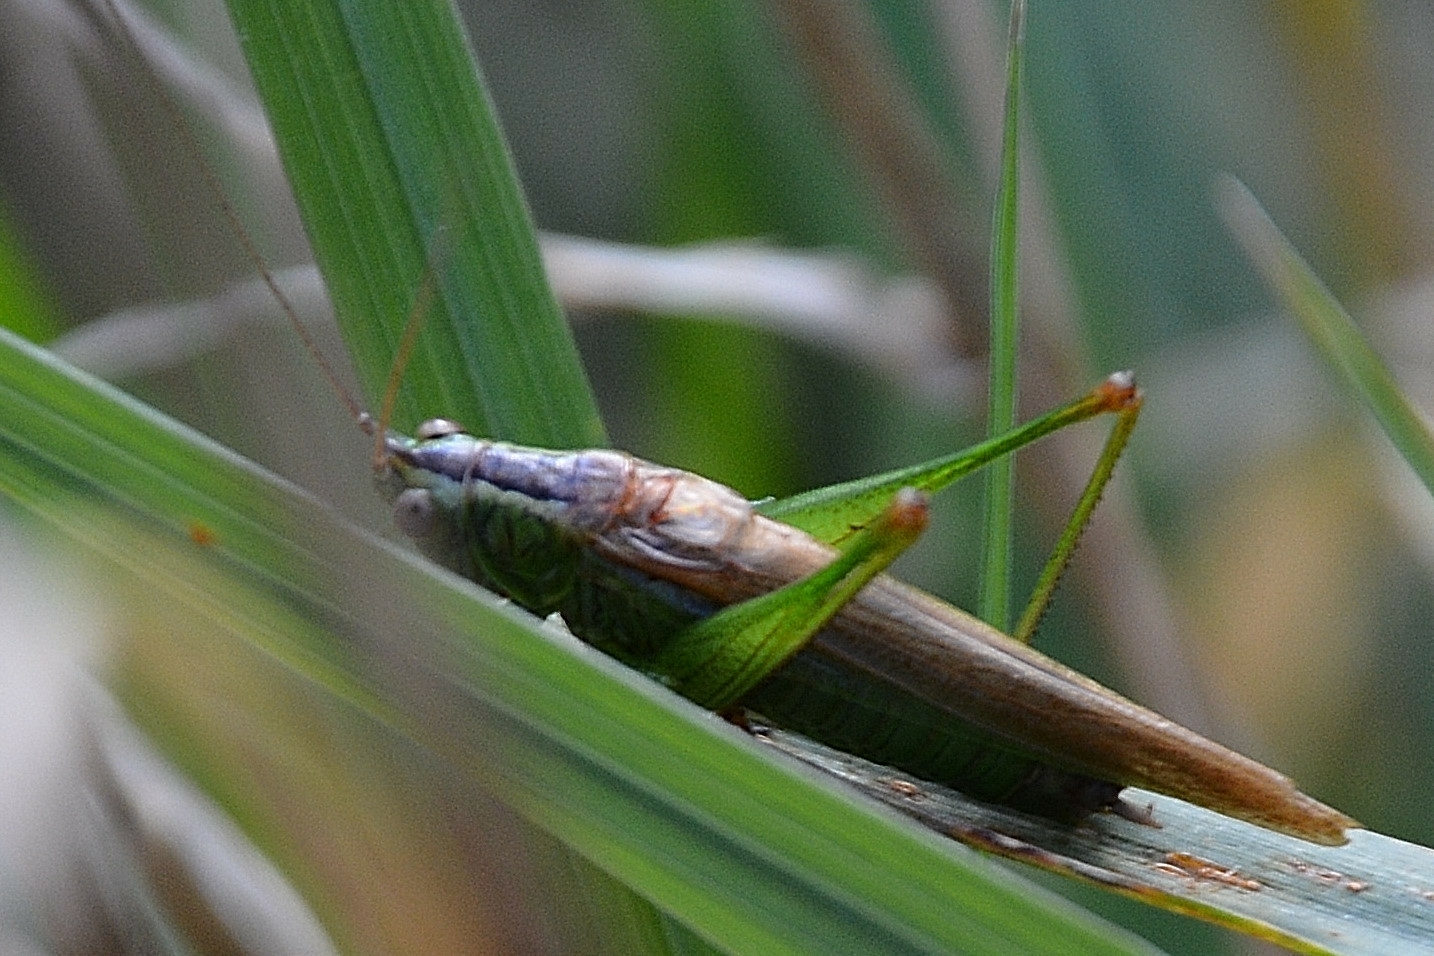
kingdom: Animalia
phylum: Arthropoda
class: Insecta
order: Orthoptera
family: Tettigoniidae
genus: Conocephalus
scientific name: Conocephalus fuscus
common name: Long-winged conehead
